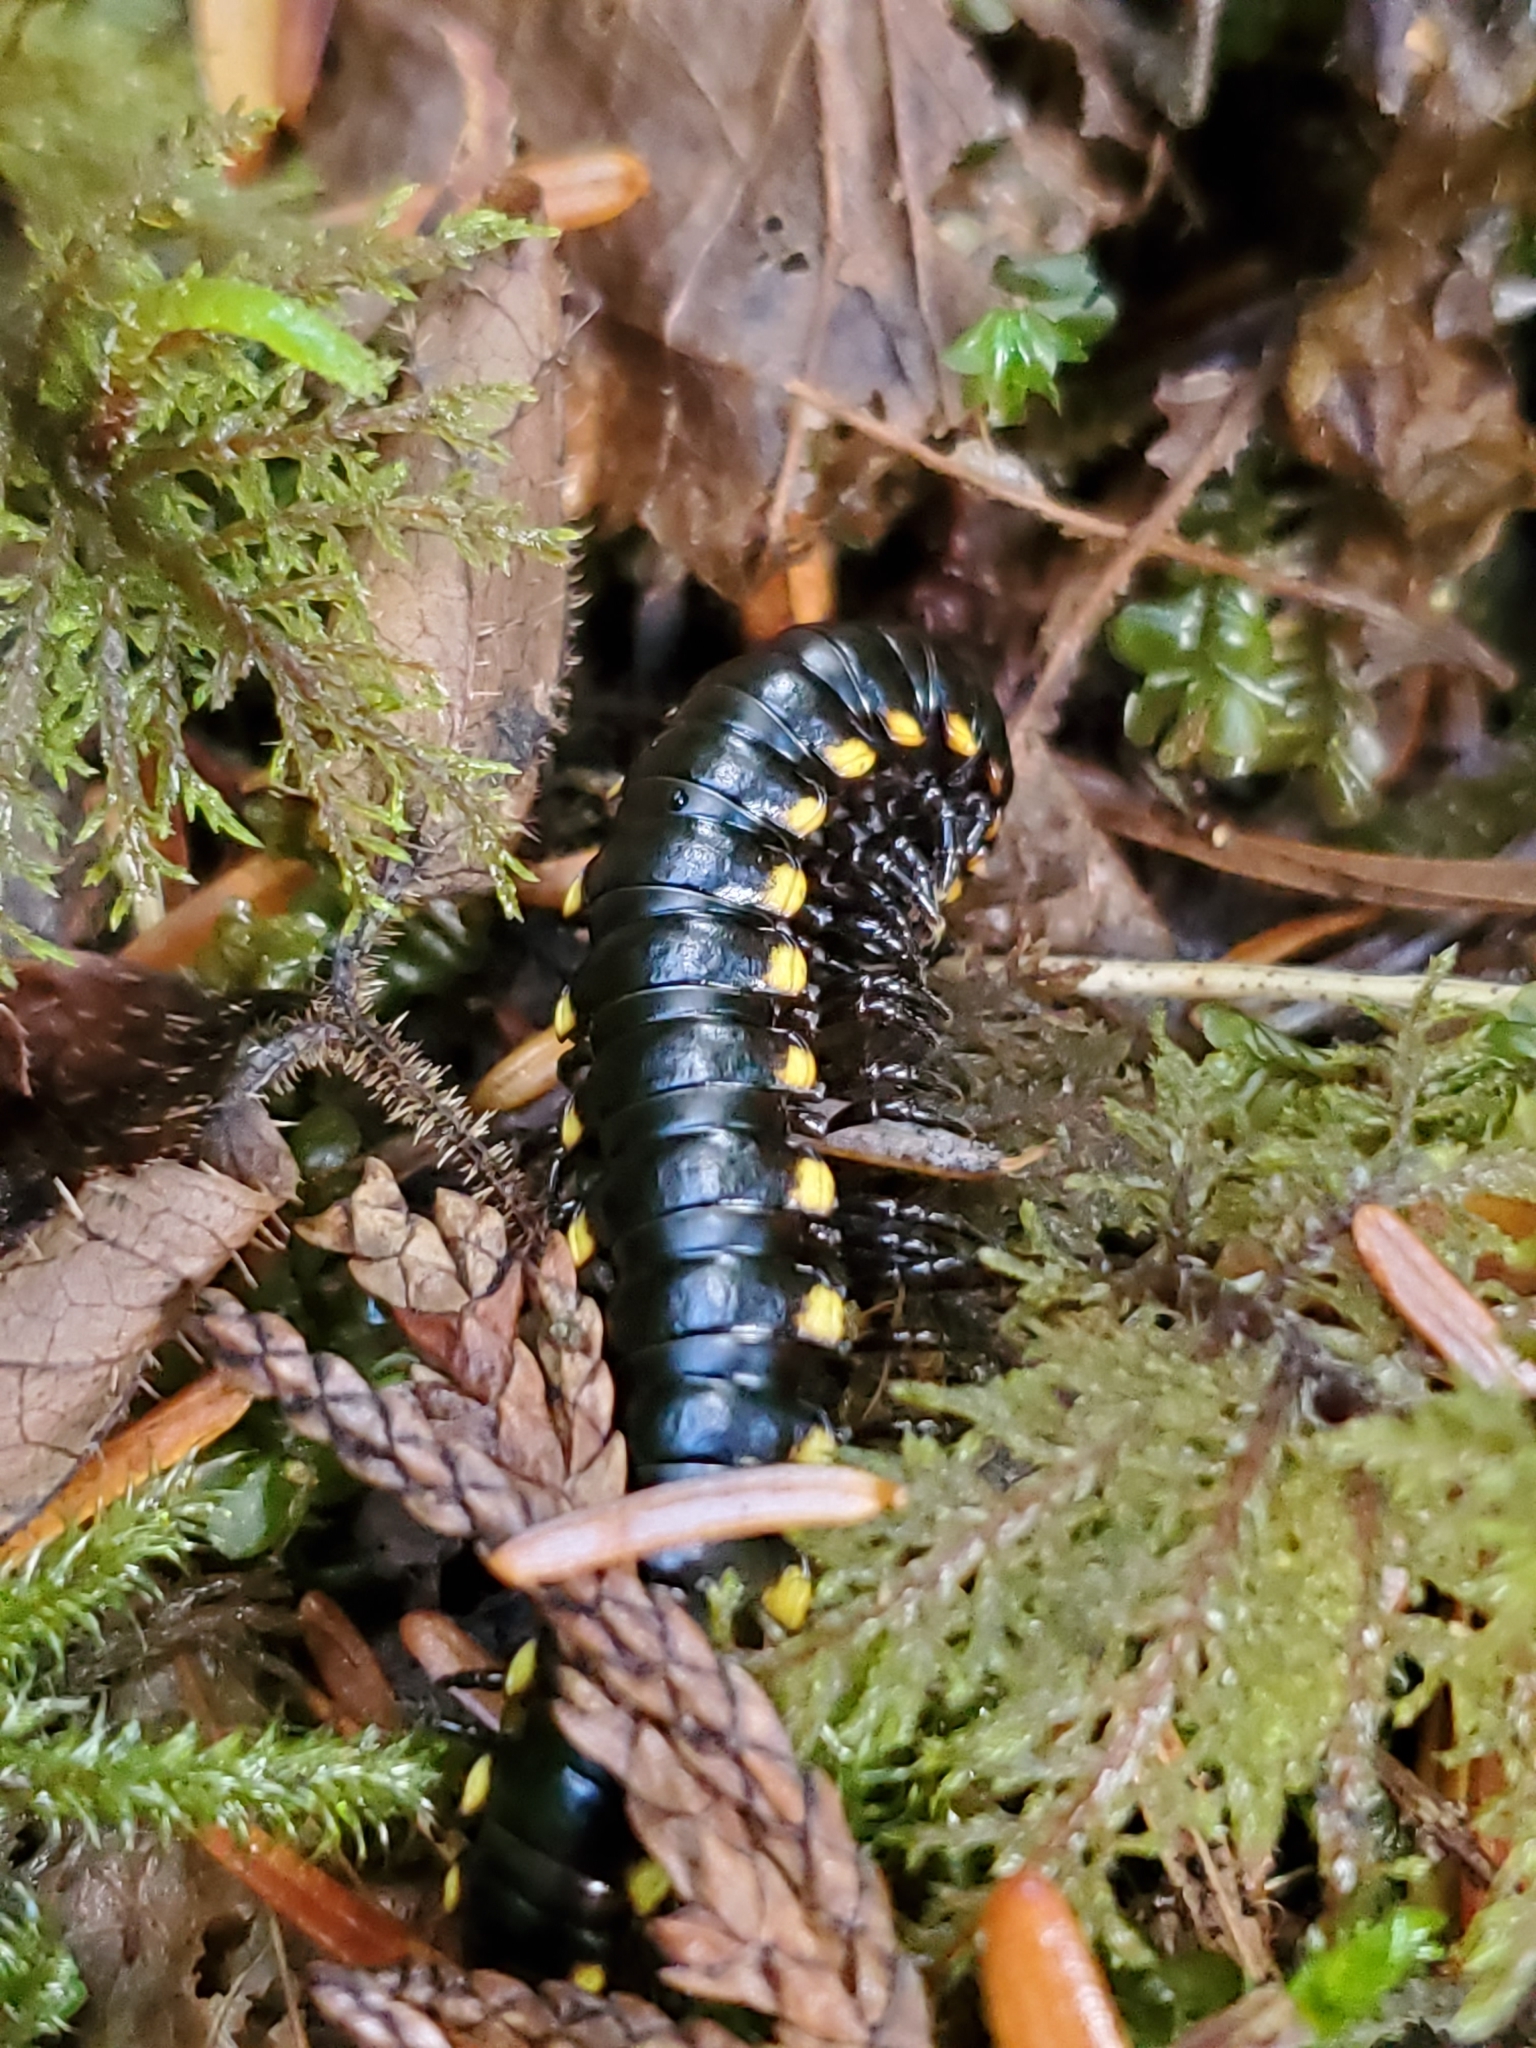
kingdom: Animalia
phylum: Arthropoda
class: Diplopoda
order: Polydesmida
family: Xystodesmidae
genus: Harpaphe
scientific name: Harpaphe haydeniana
